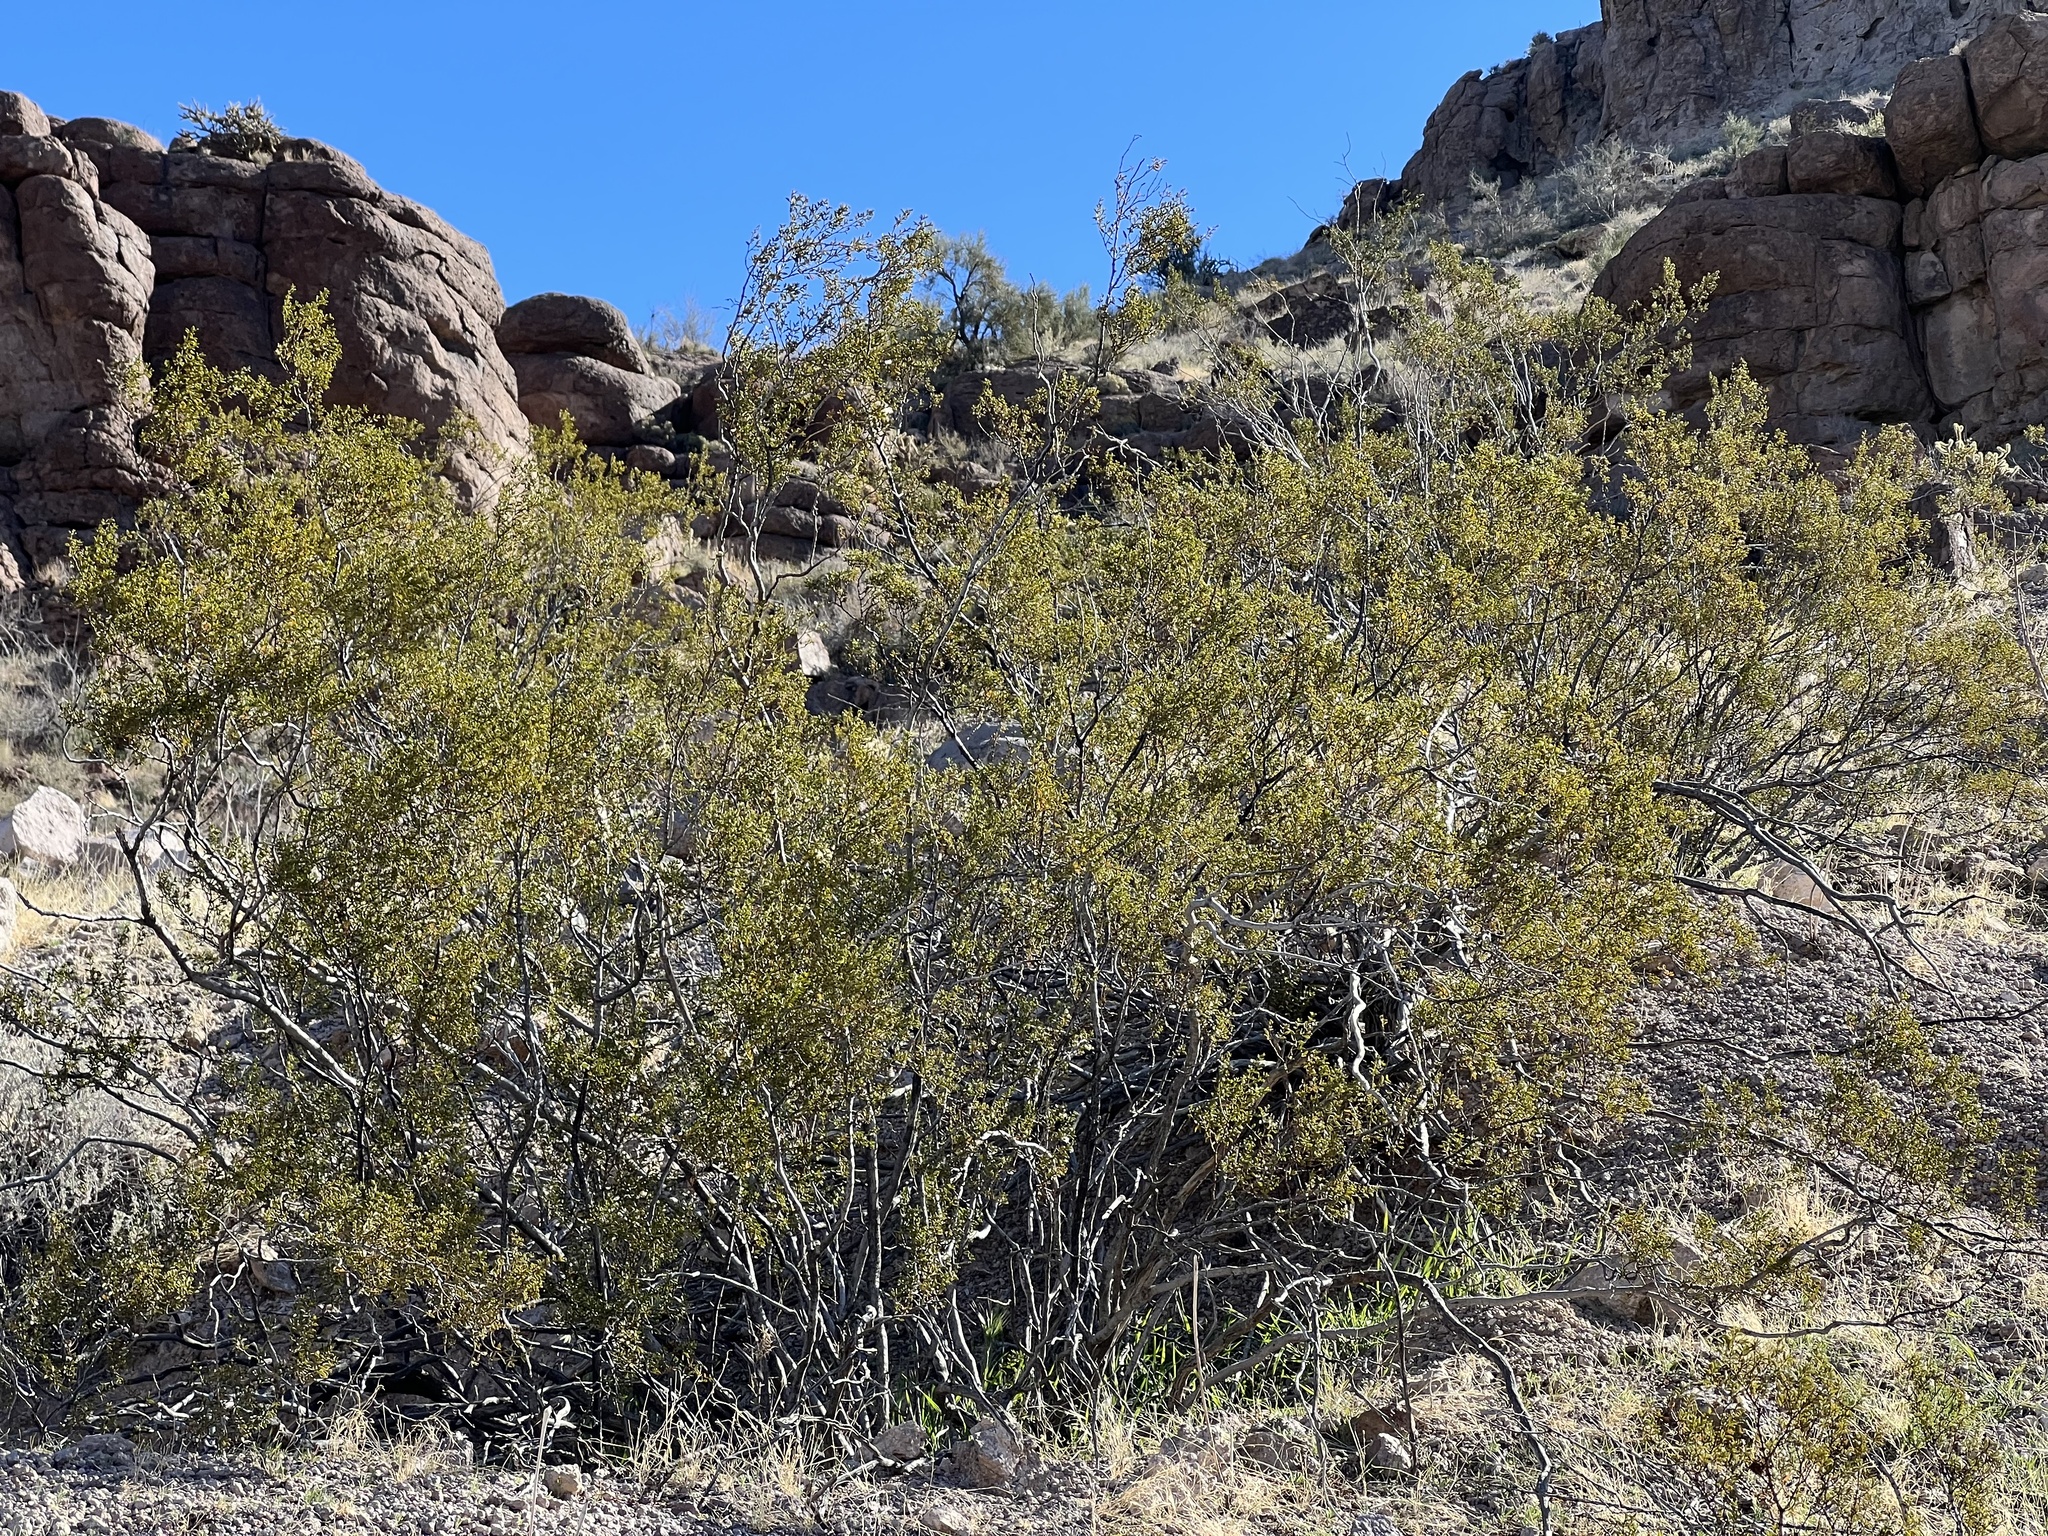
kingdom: Plantae
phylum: Tracheophyta
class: Magnoliopsida
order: Zygophyllales
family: Zygophyllaceae
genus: Larrea
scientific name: Larrea tridentata
